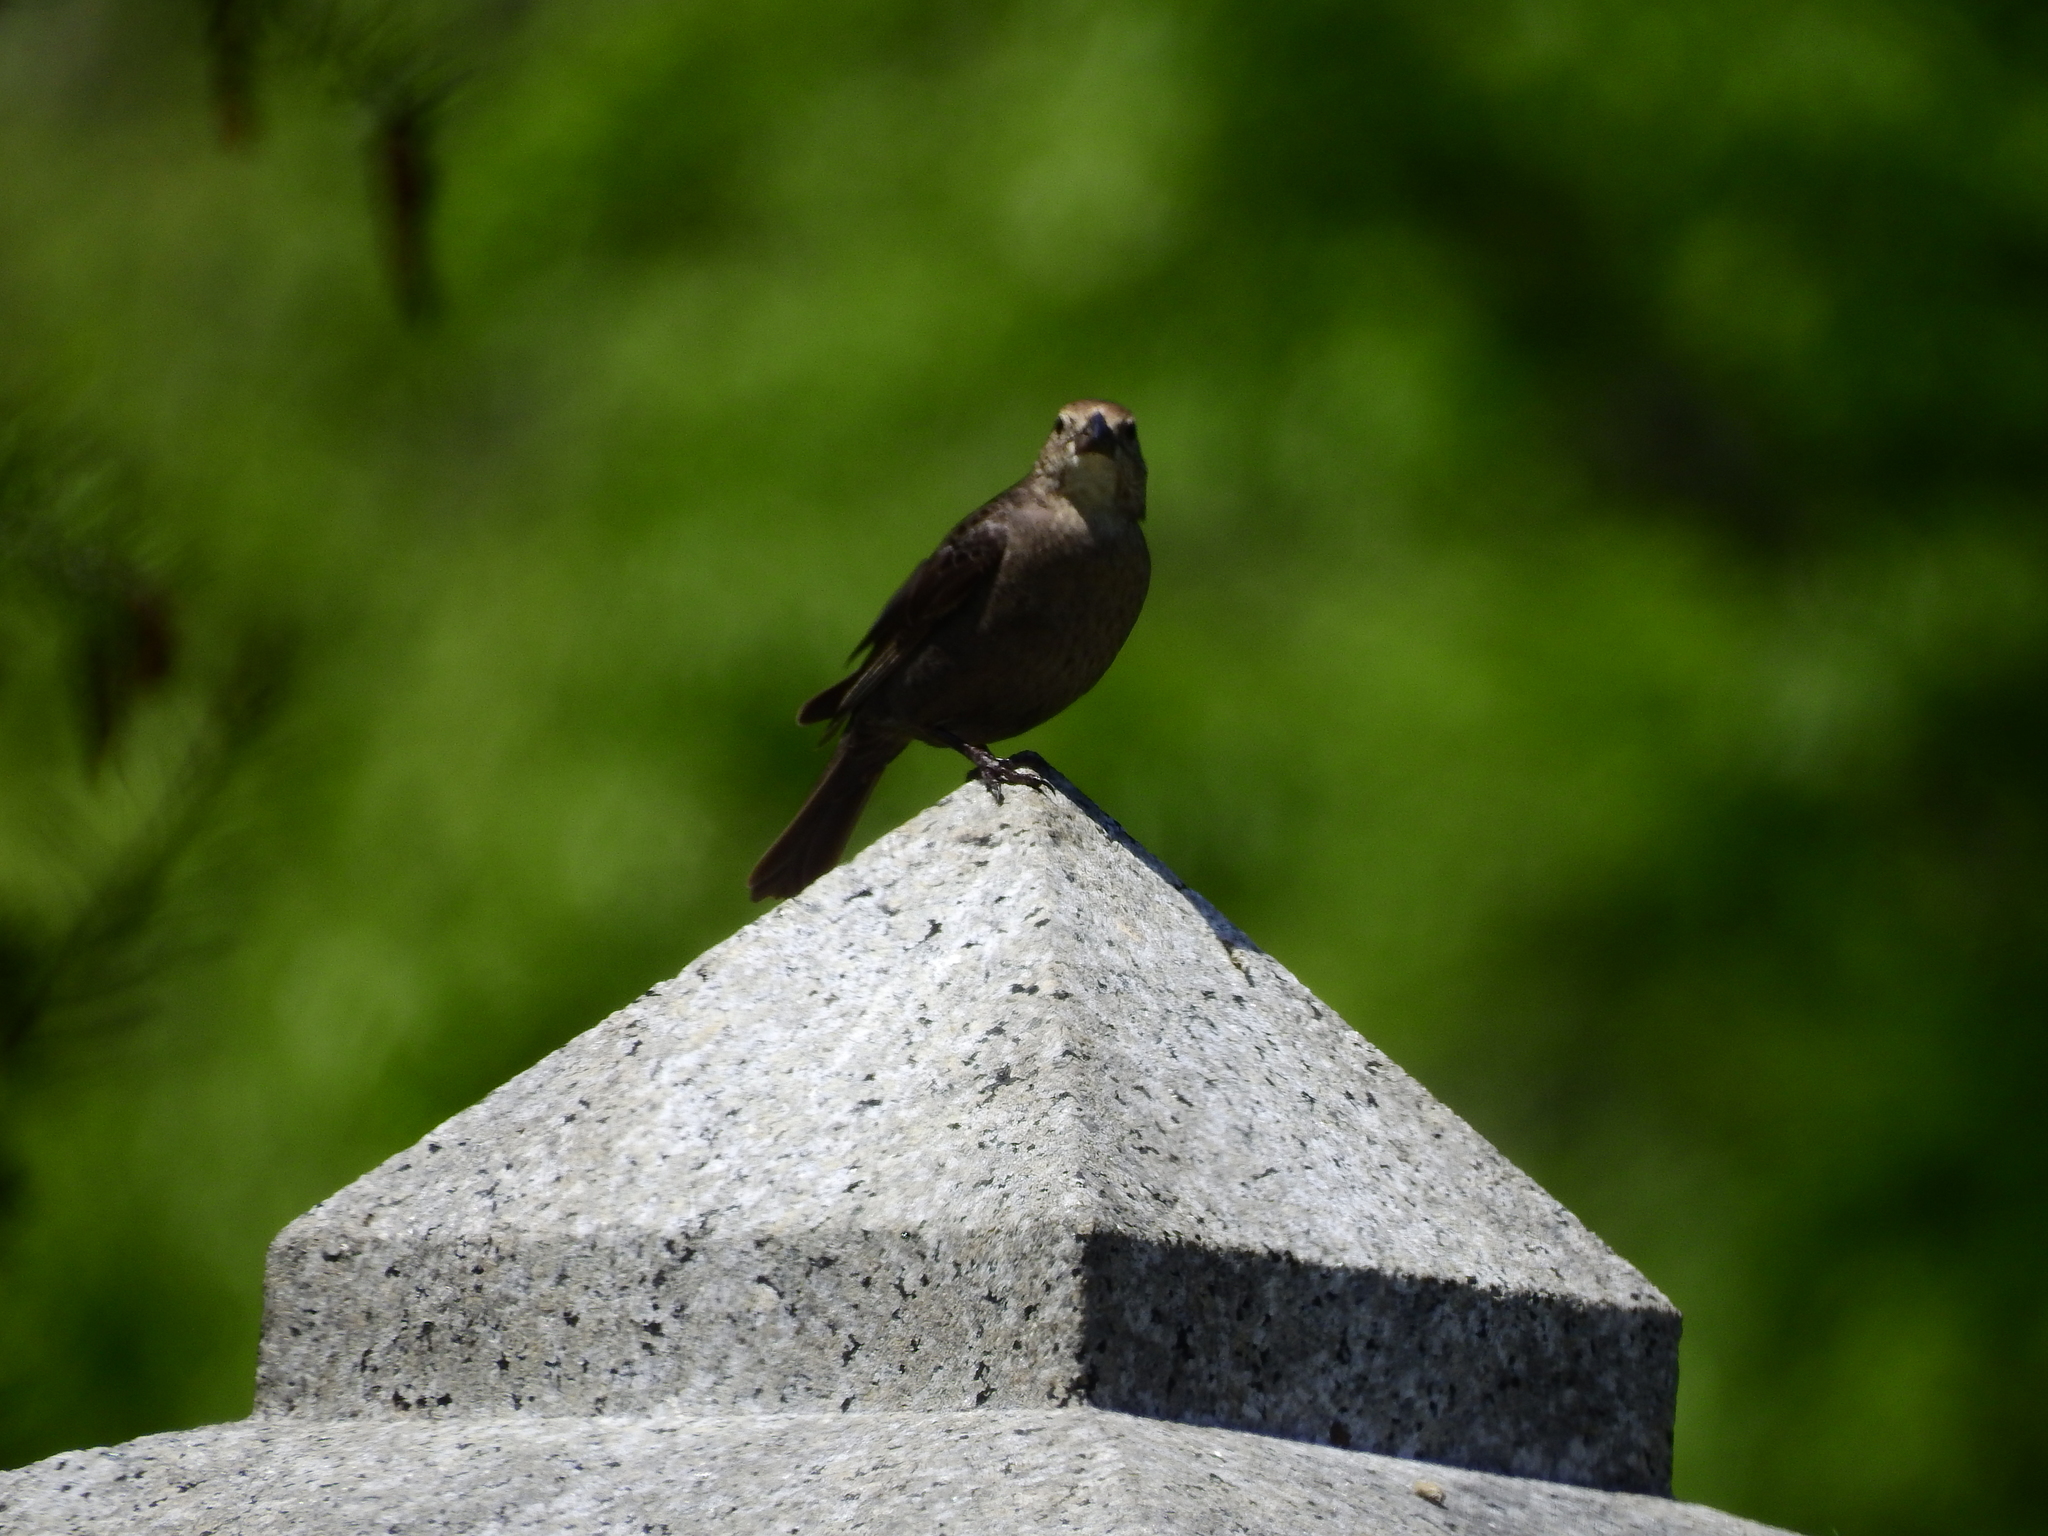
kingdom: Animalia
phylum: Chordata
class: Aves
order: Passeriformes
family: Icteridae
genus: Molothrus
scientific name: Molothrus ater
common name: Brown-headed cowbird
